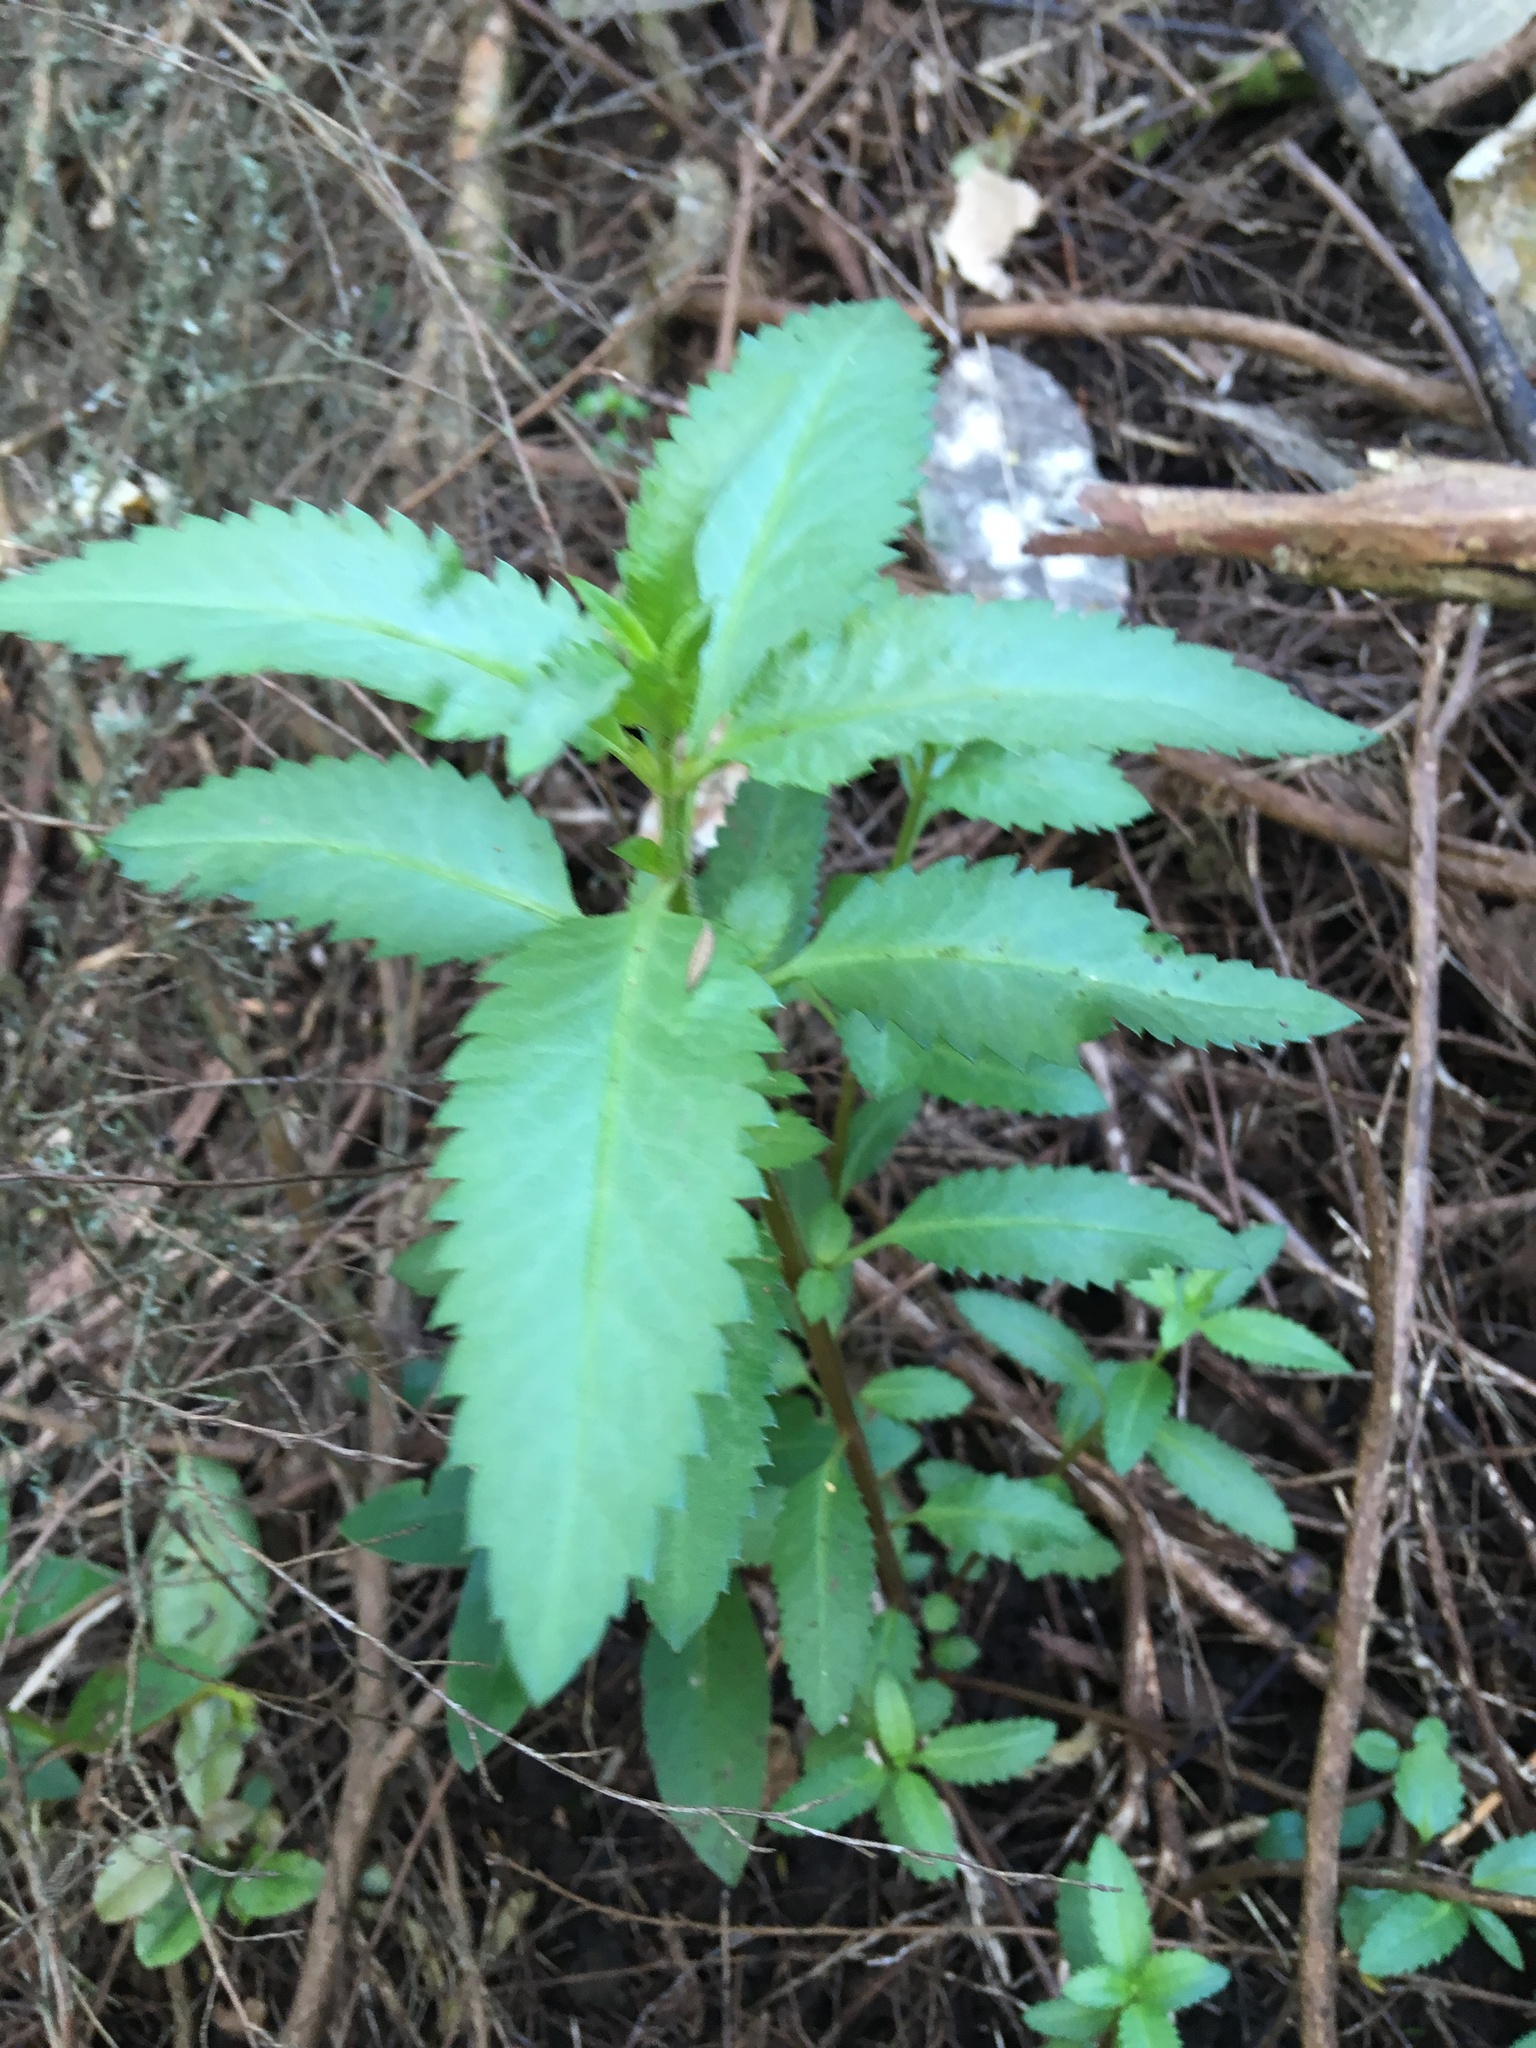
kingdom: Plantae
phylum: Tracheophyta
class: Magnoliopsida
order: Saxifragales
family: Haloragaceae
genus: Haloragis
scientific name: Haloragis erecta
